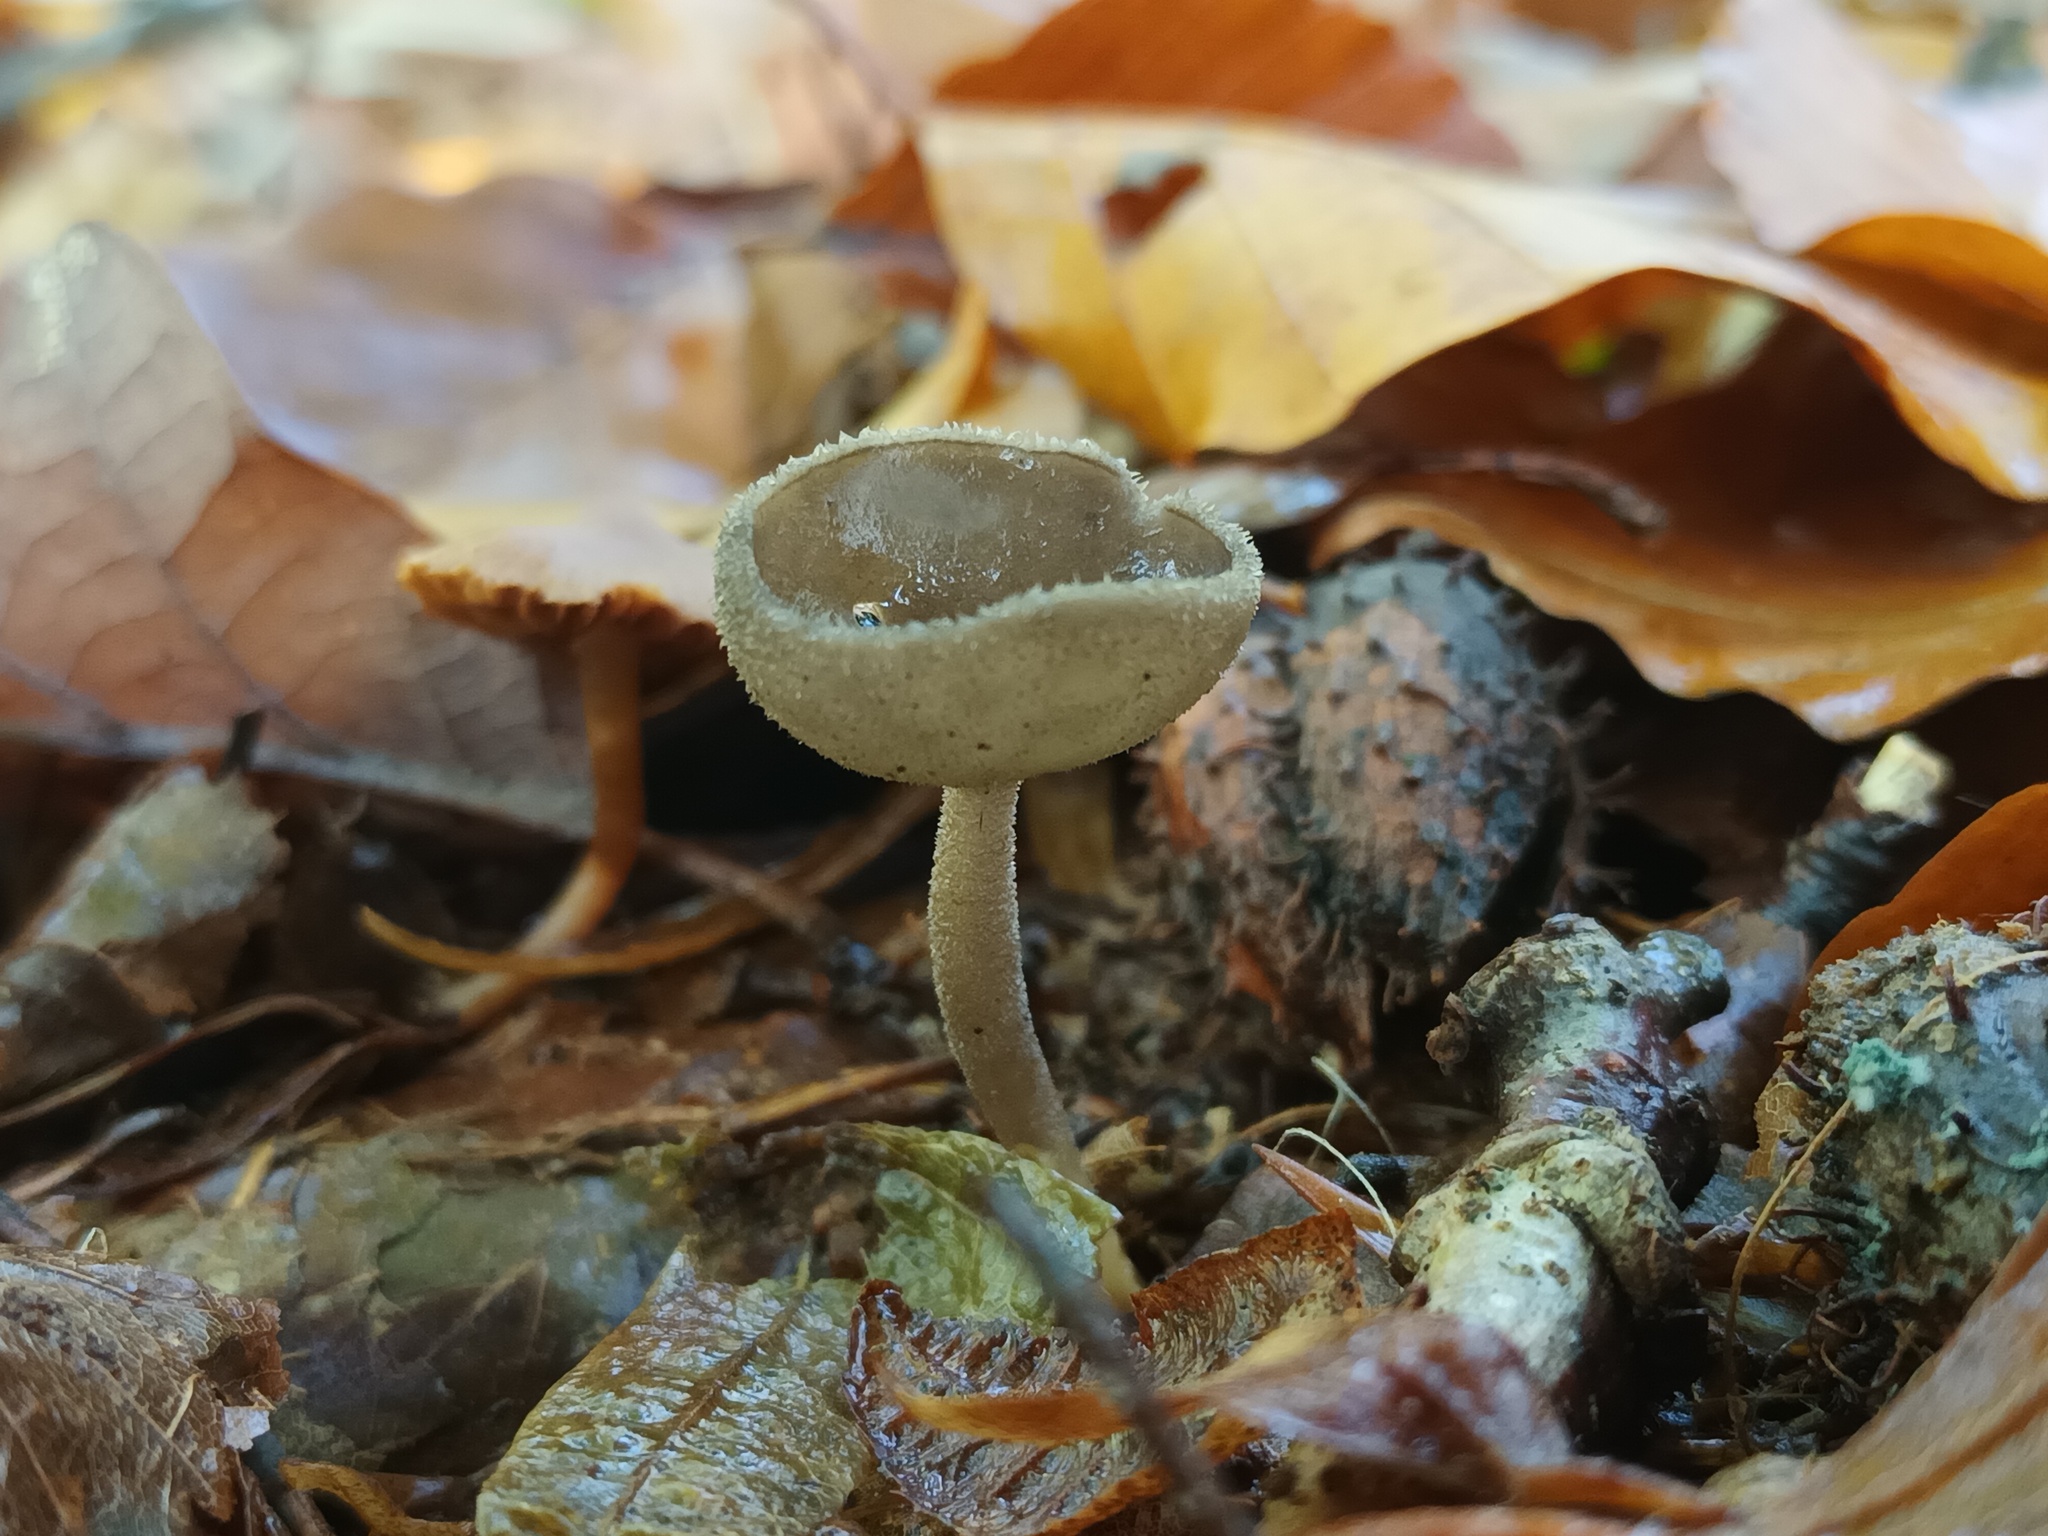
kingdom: Fungi
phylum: Ascomycota
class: Pezizomycetes
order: Pezizales
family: Helvellaceae
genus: Helvella
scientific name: Helvella macropus
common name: Felt saddle
